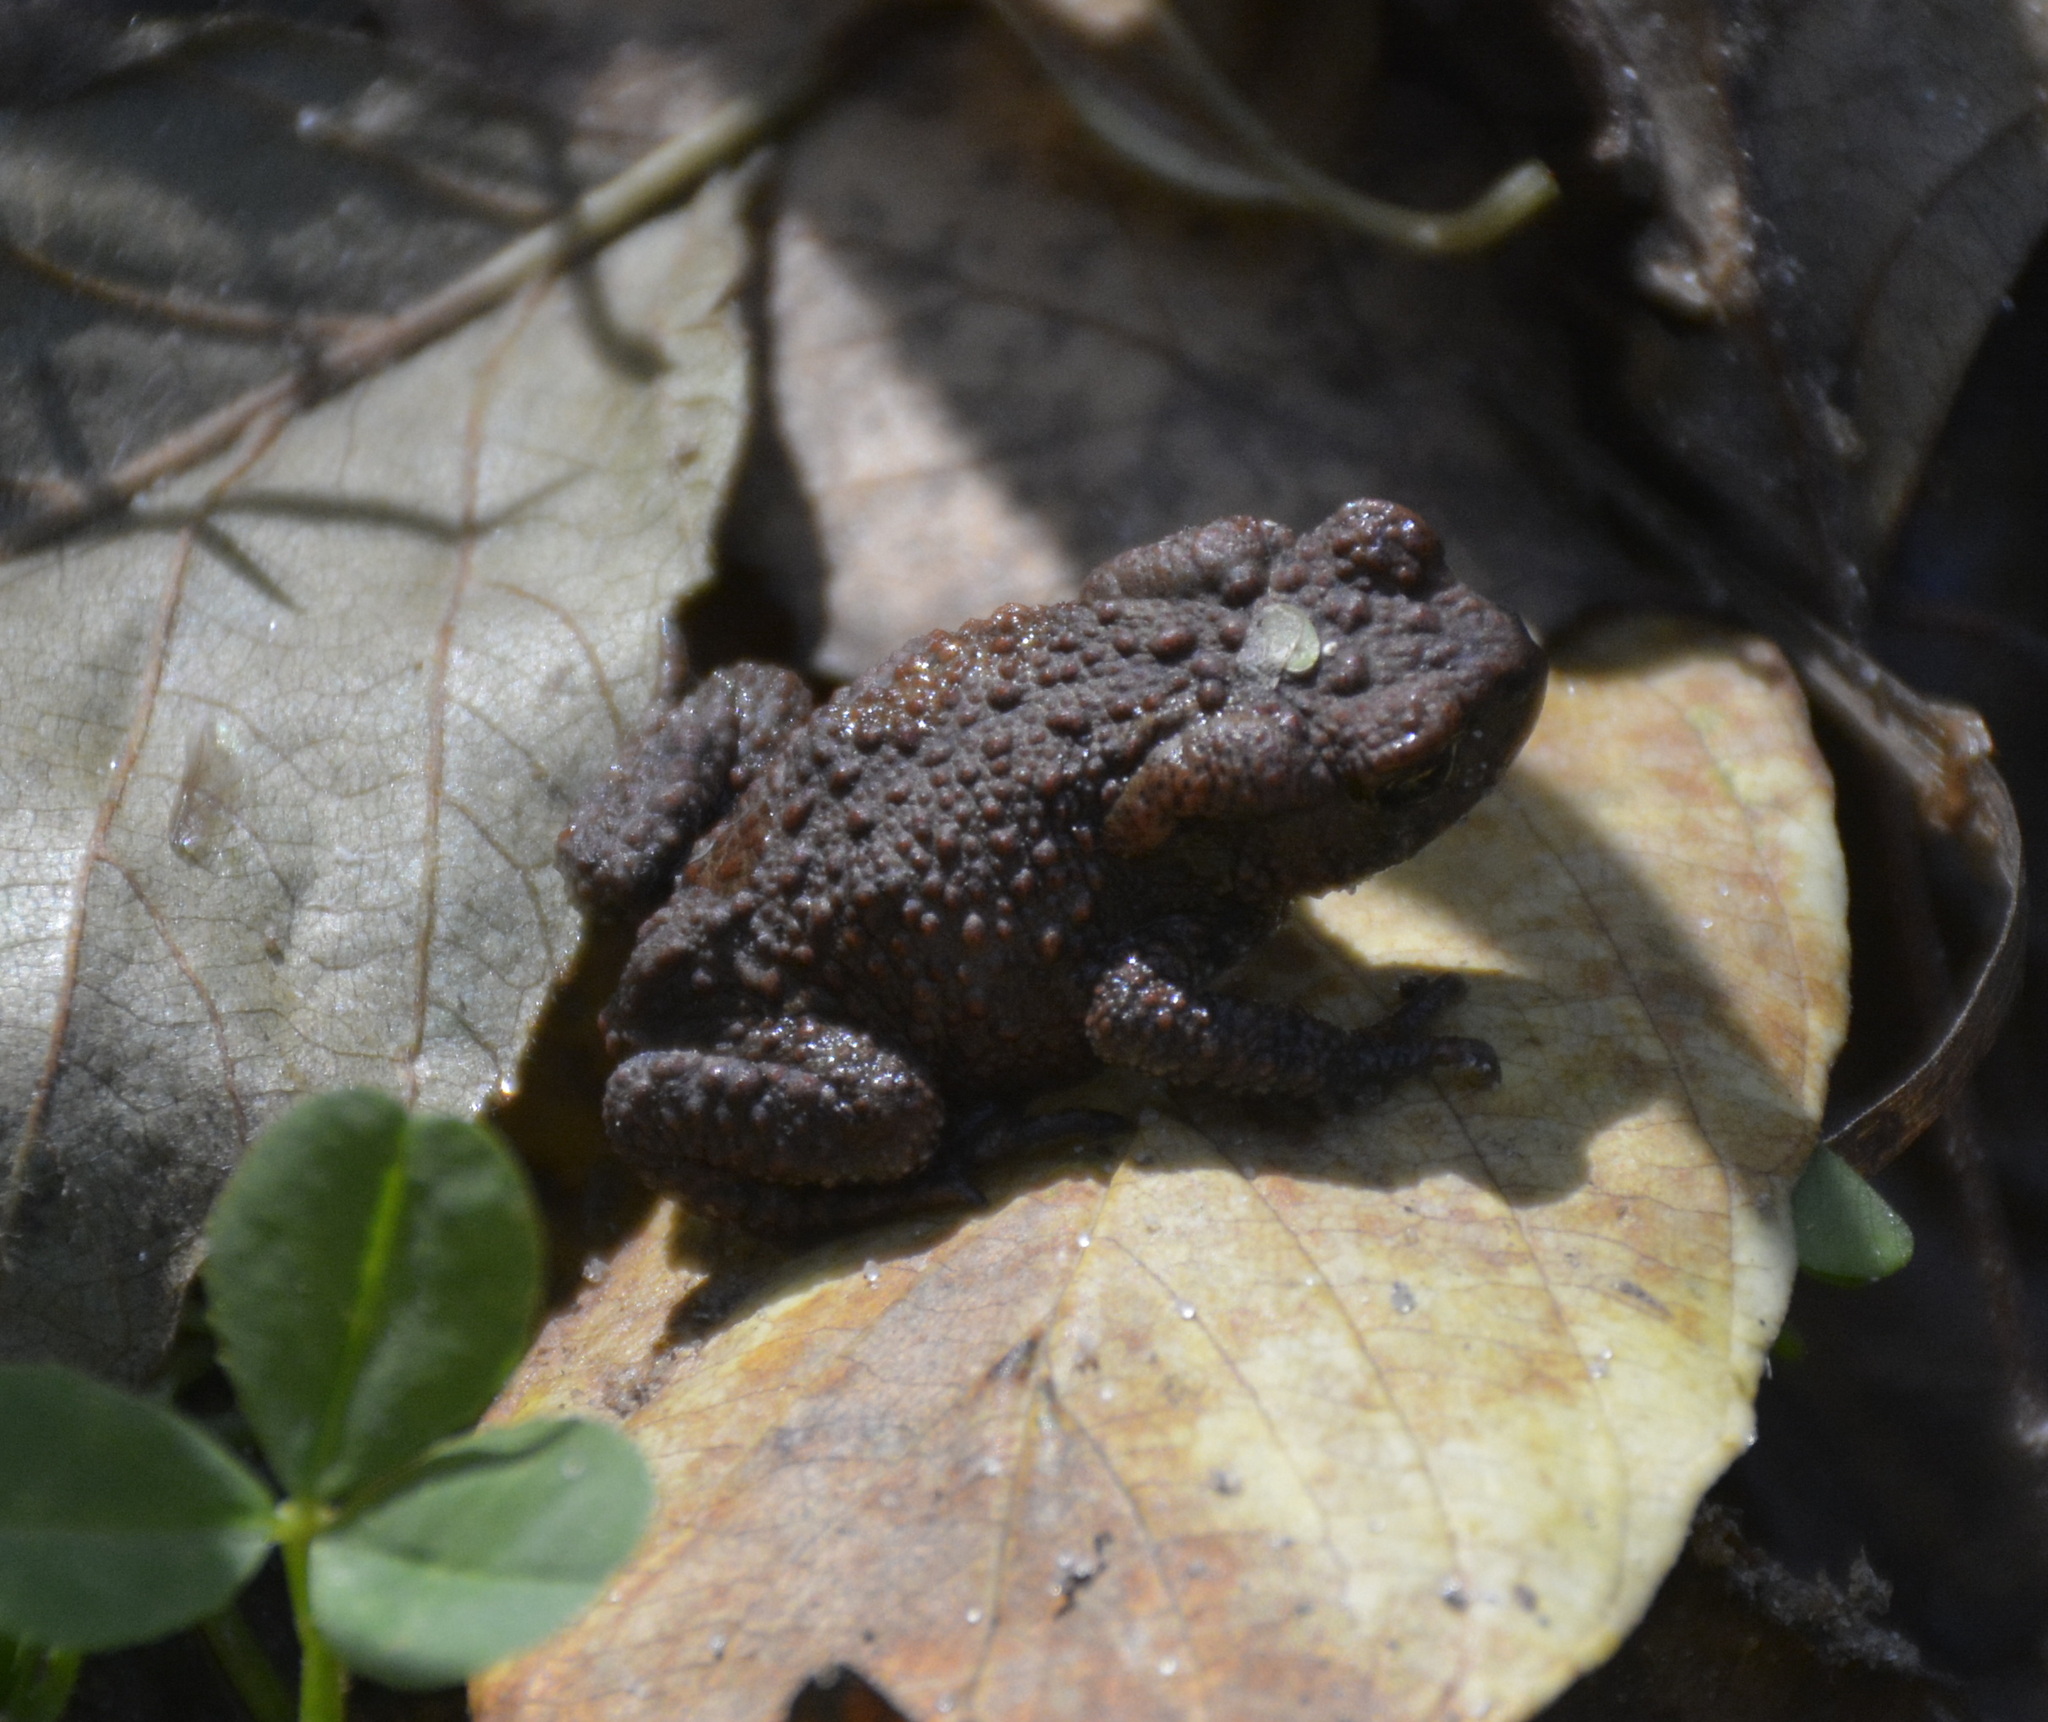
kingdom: Animalia
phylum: Chordata
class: Amphibia
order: Anura
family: Bufonidae
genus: Bufo
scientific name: Bufo bufo
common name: Common toad
